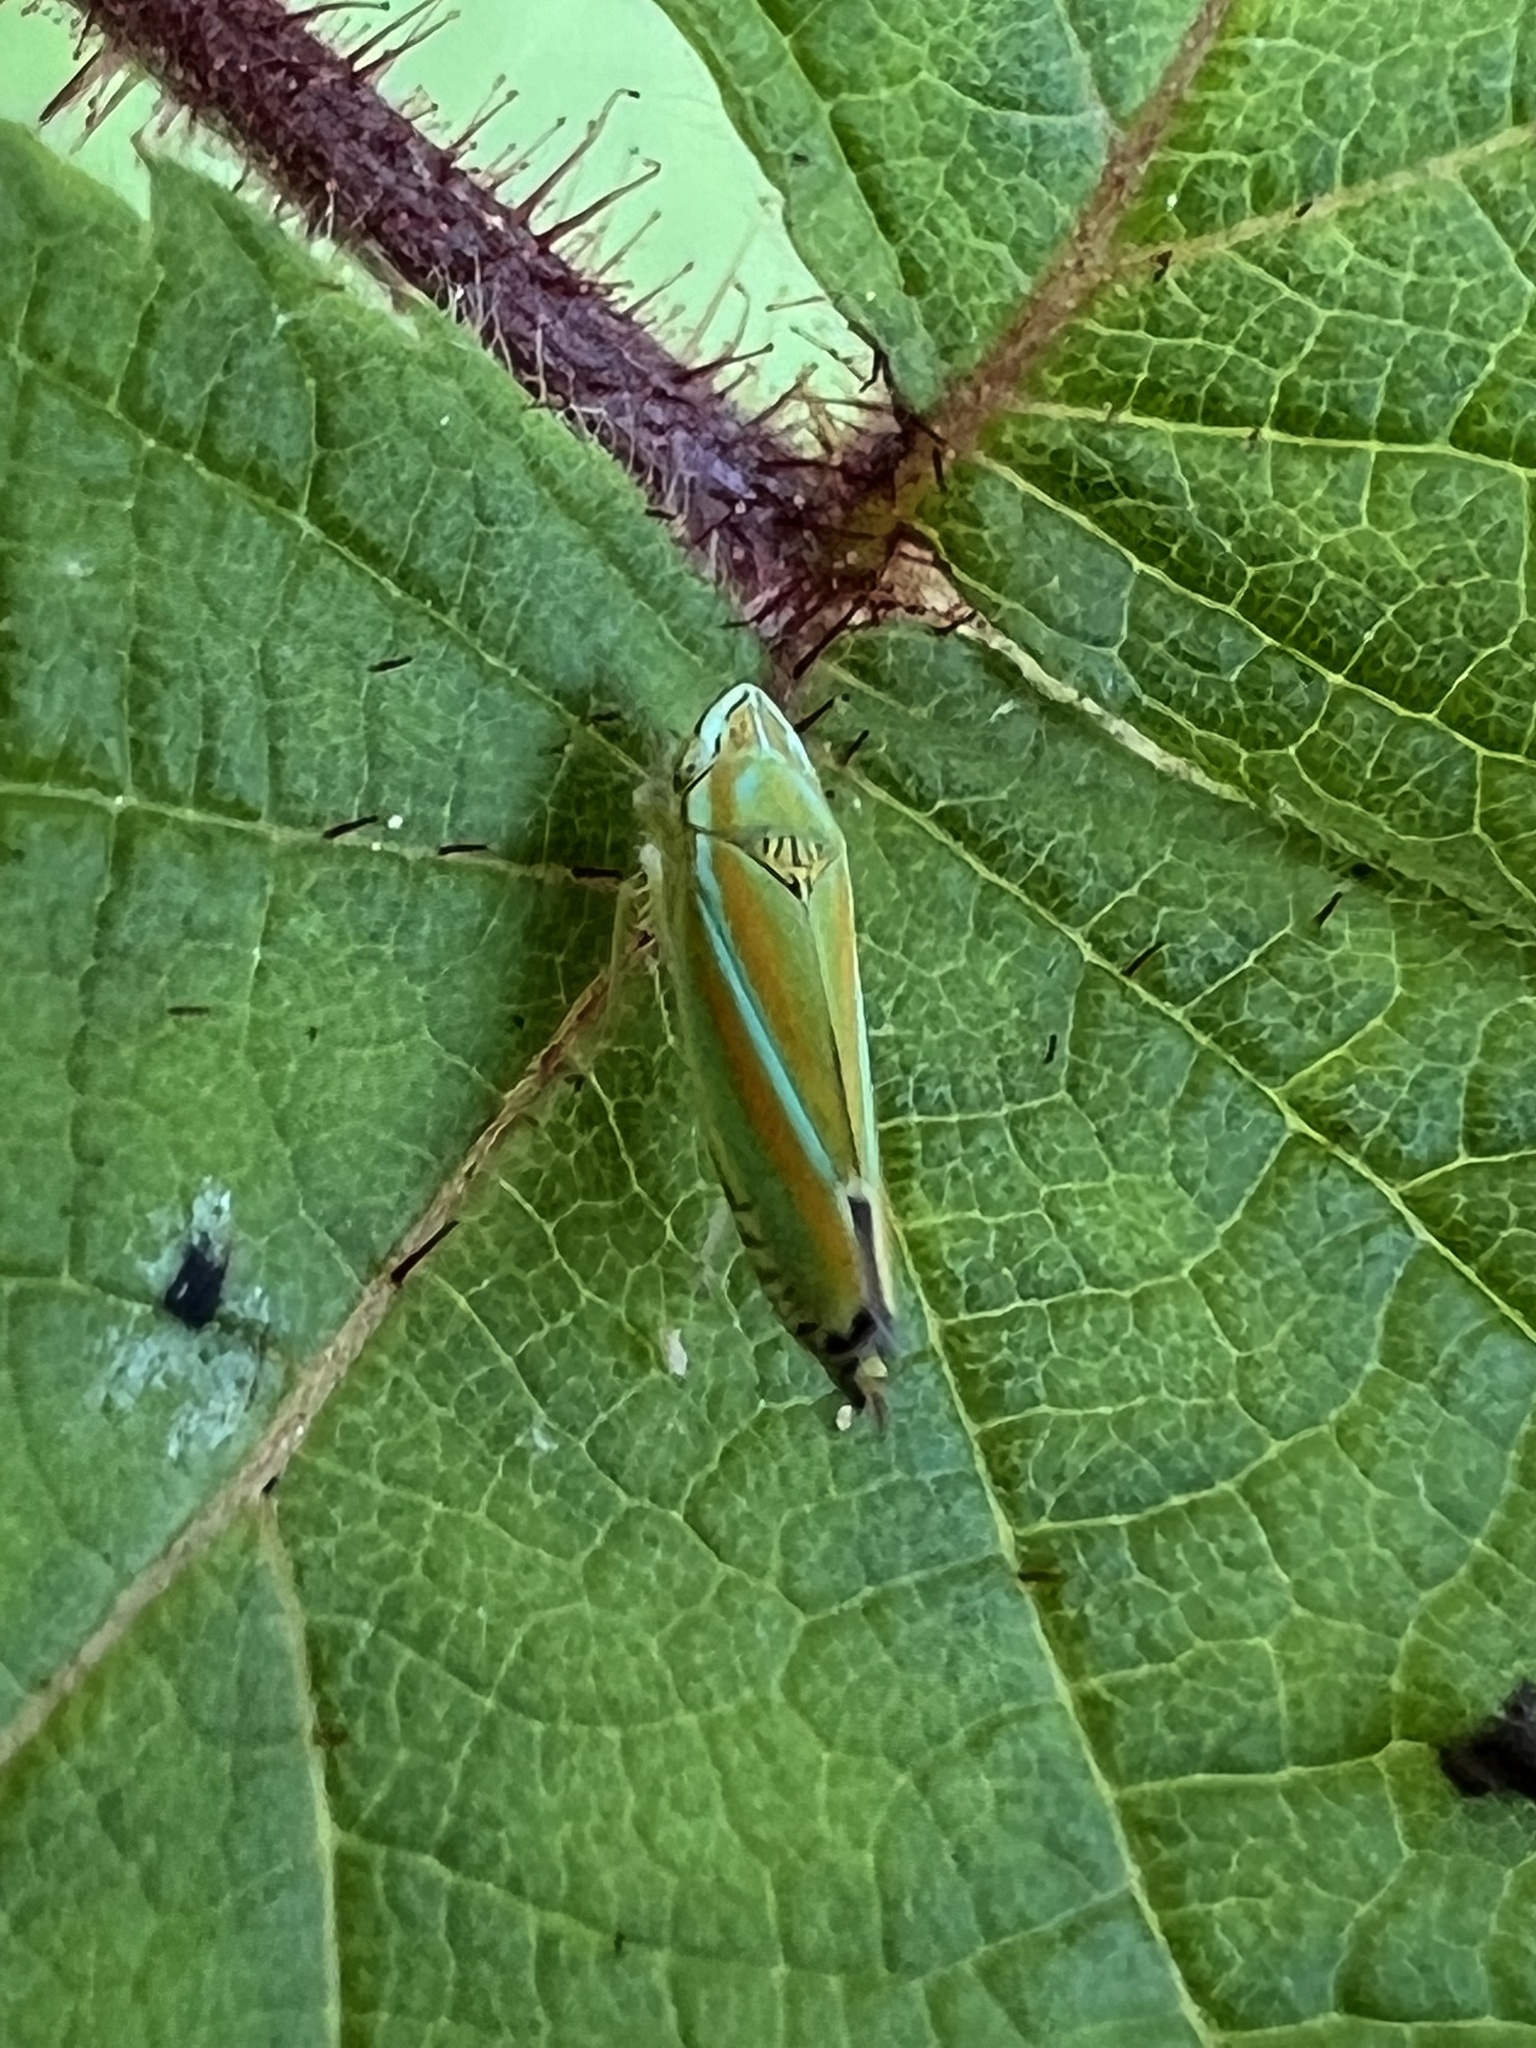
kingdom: Animalia
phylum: Arthropoda
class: Insecta
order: Hemiptera
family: Cicadellidae
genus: Graphocephala
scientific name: Graphocephala versuta
